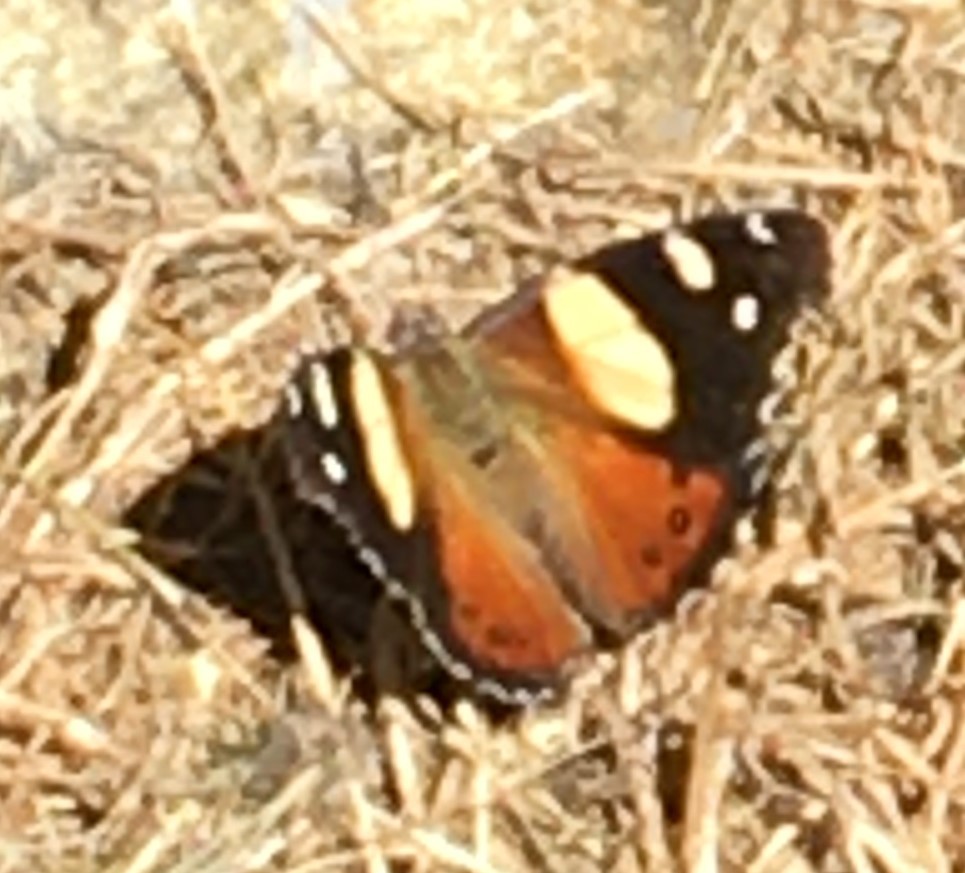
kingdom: Animalia
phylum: Arthropoda
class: Insecta
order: Lepidoptera
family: Nymphalidae
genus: Vanessa
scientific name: Vanessa itea
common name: Yellow admiral
